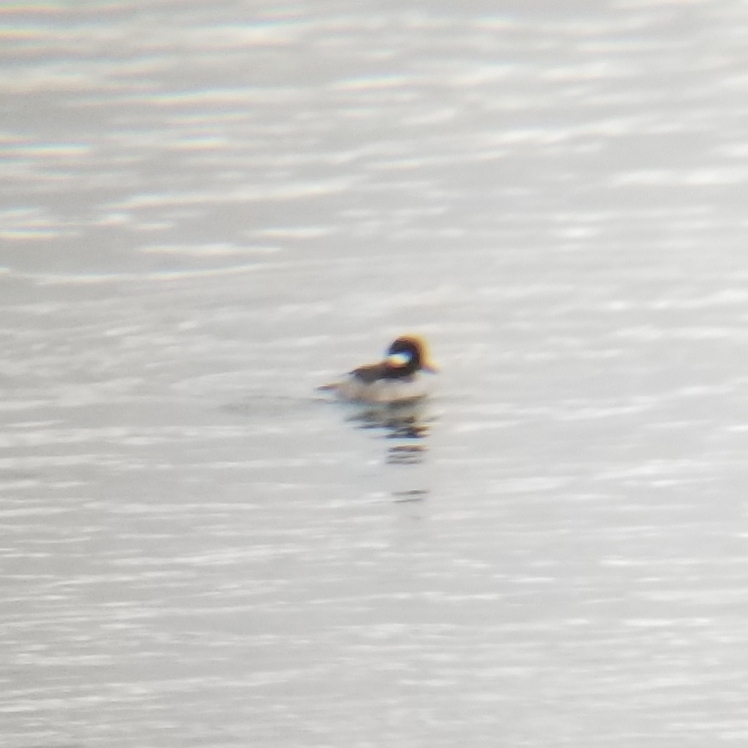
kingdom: Animalia
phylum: Chordata
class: Aves
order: Anseriformes
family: Anatidae
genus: Bucephala
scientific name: Bucephala albeola
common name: Bufflehead
